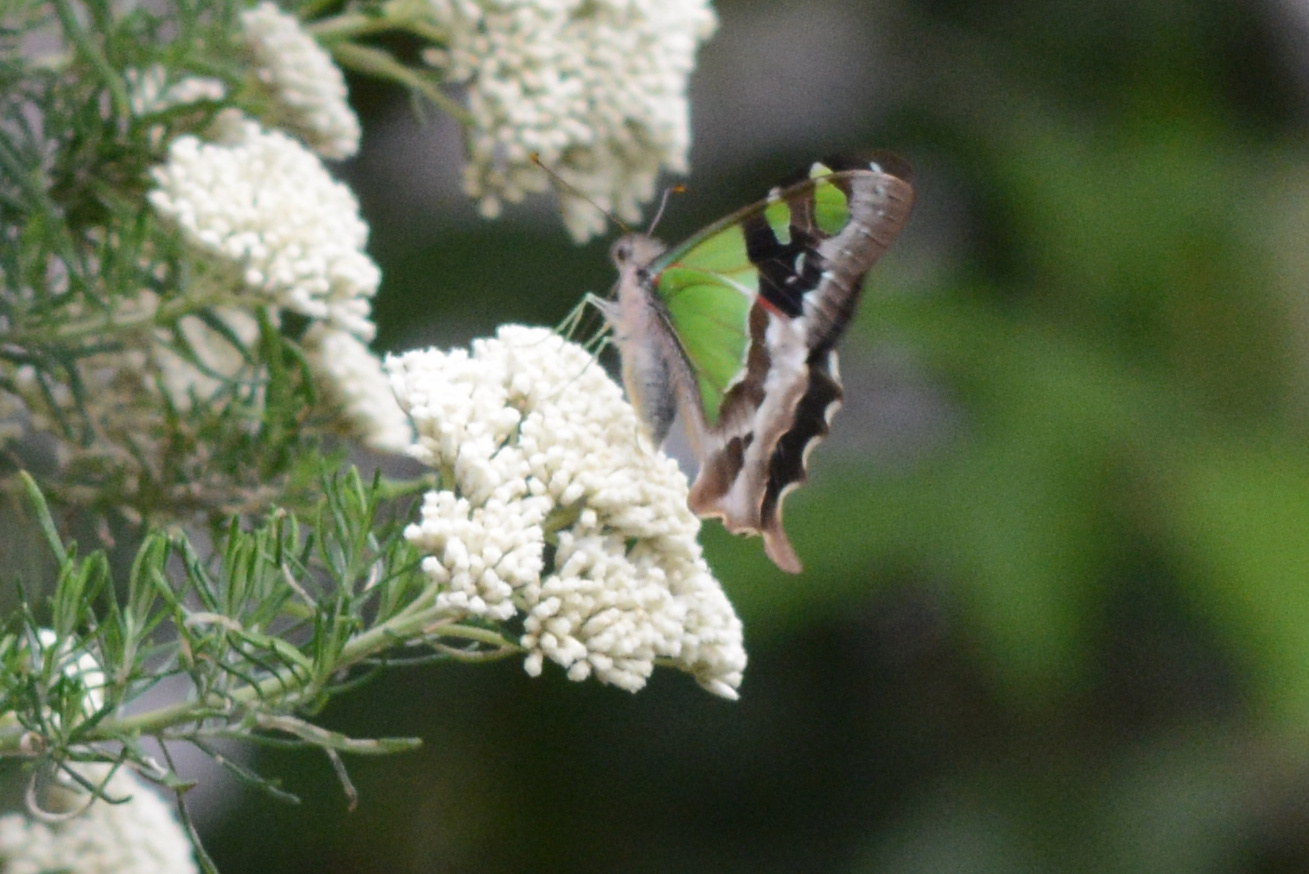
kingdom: Animalia
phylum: Arthropoda
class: Insecta
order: Lepidoptera
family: Papilionidae
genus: Graphium
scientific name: Graphium macleayanus
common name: Macleay's swallowtail
